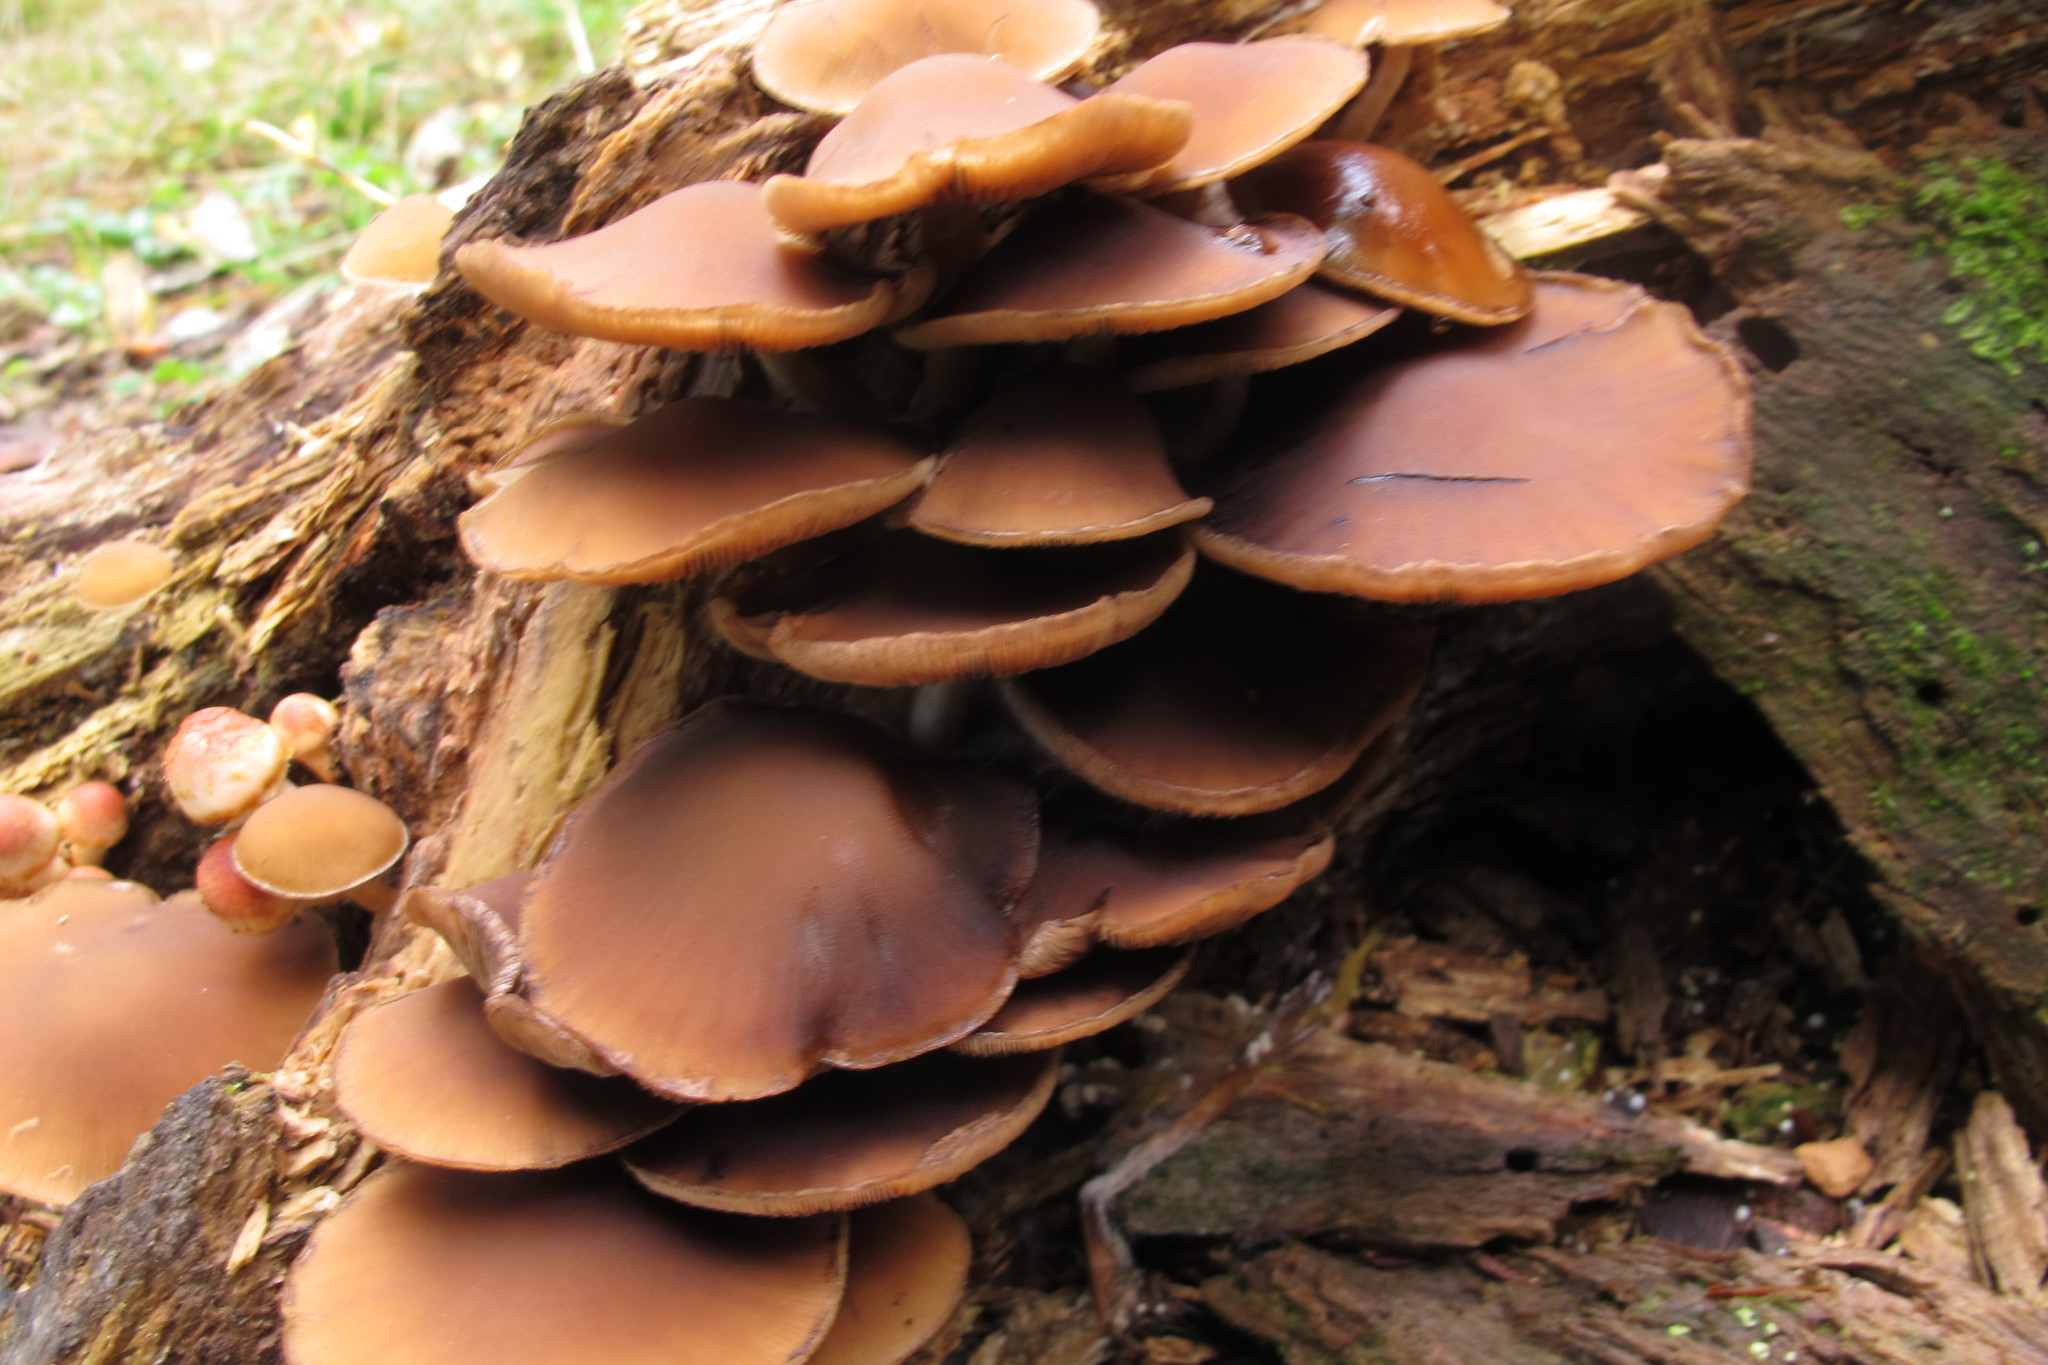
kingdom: Fungi
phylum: Basidiomycota
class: Agaricomycetes
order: Agaricales
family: Psathyrellaceae
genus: Psathyrella
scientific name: Psathyrella piluliformis
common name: Common stump brittlestem
